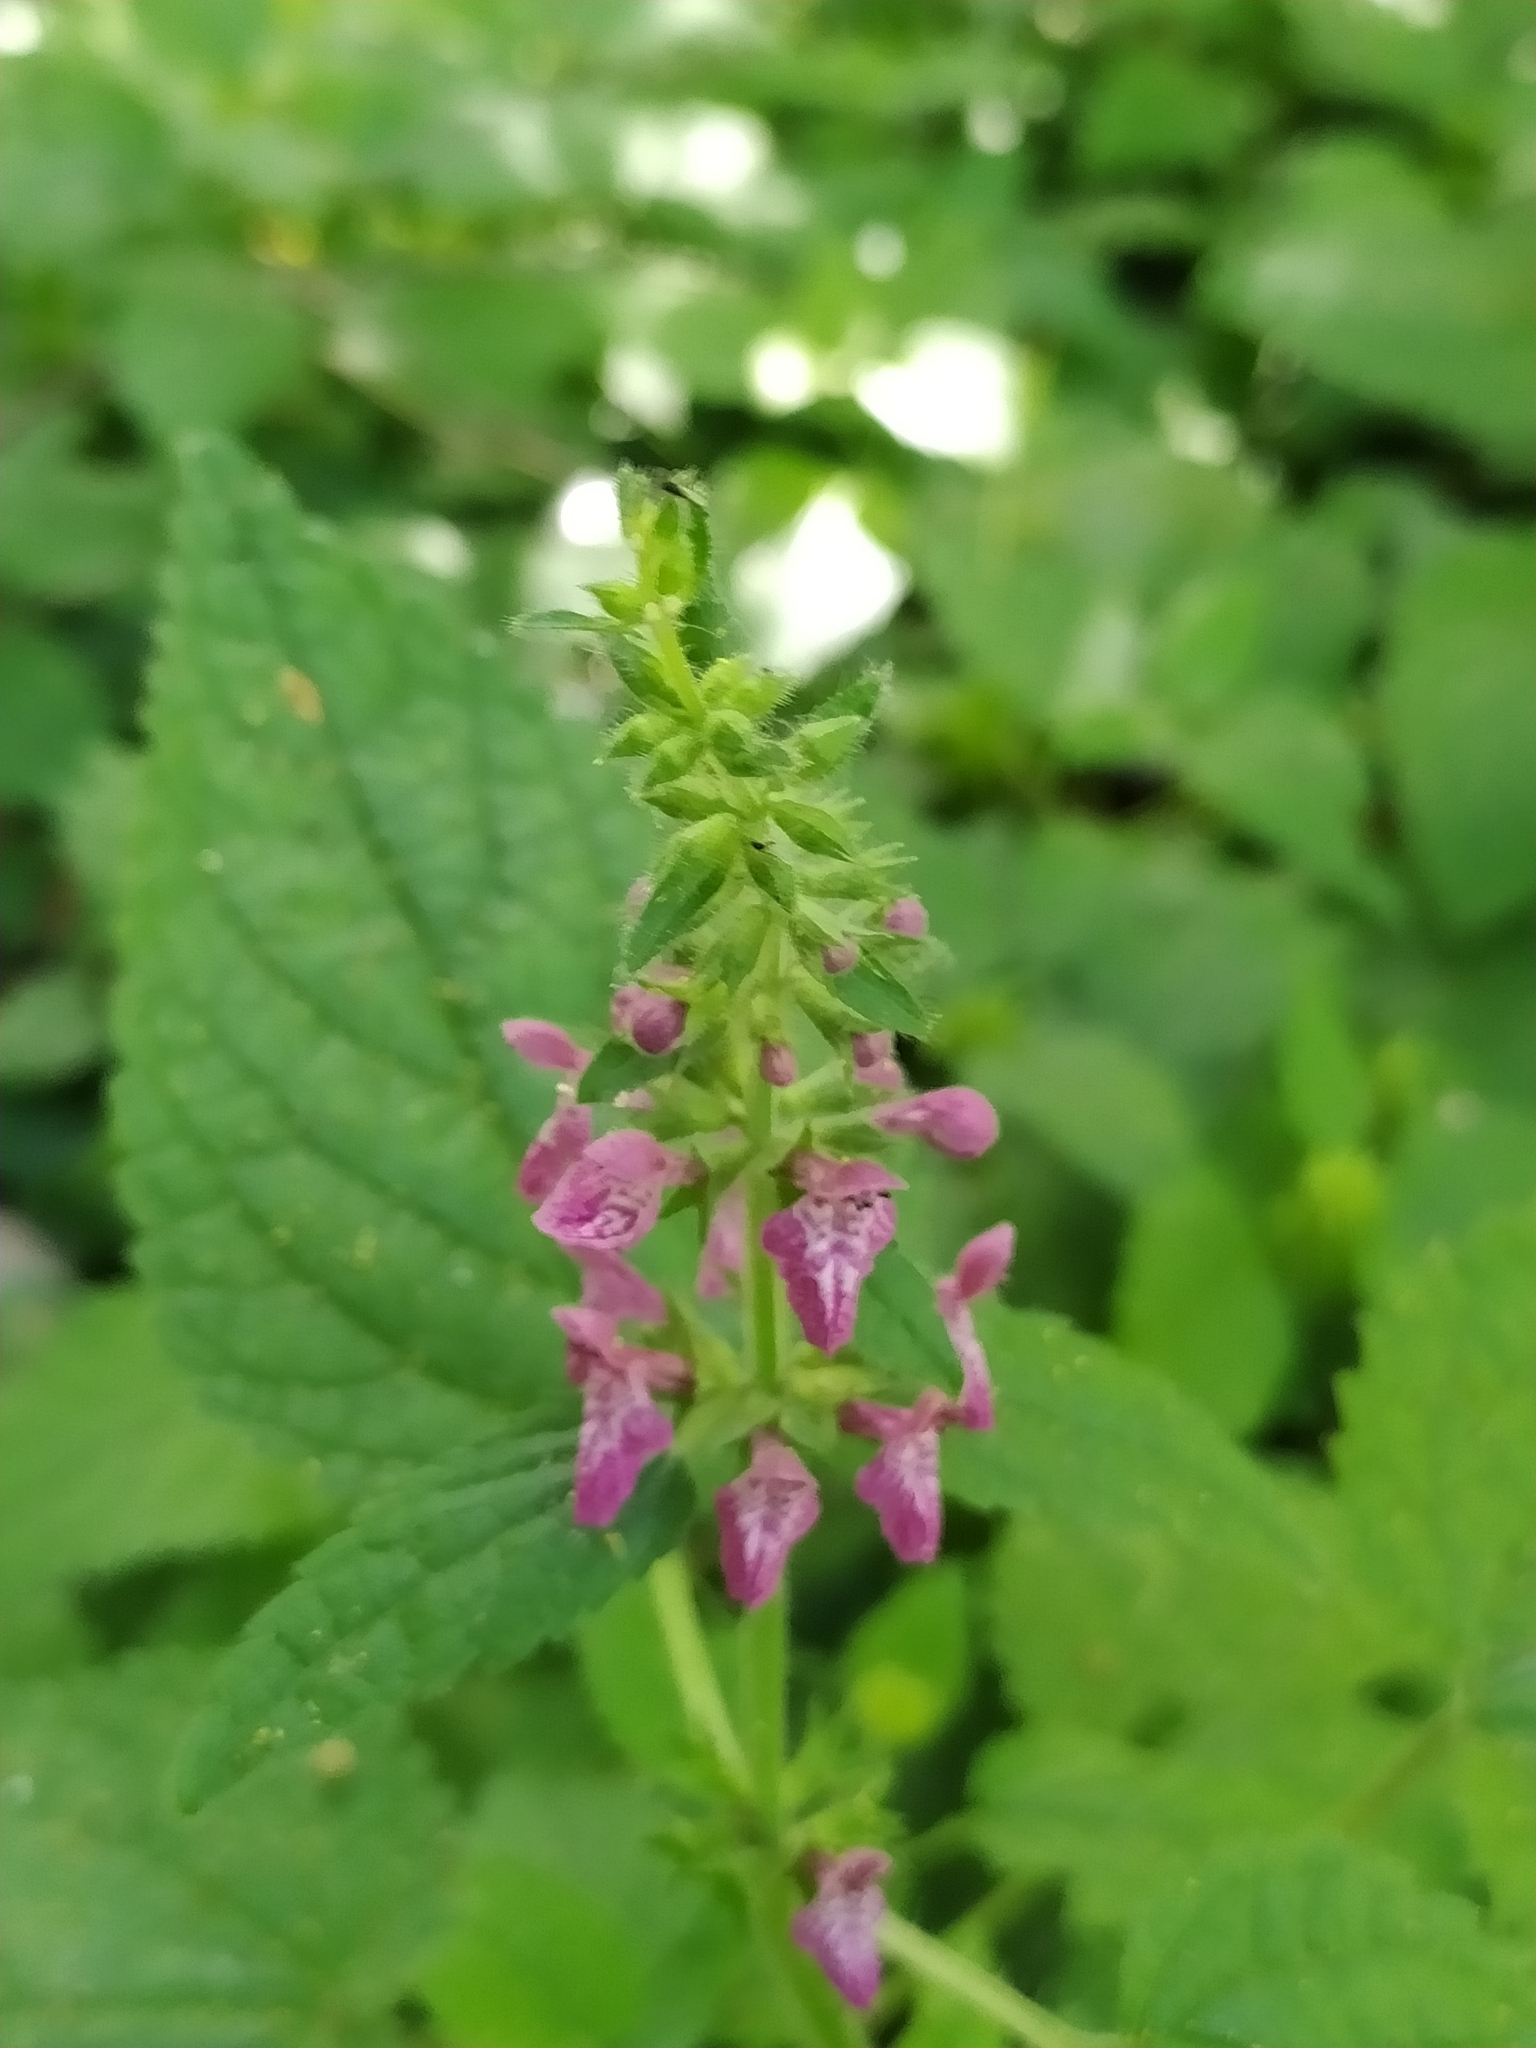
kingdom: Plantae
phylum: Tracheophyta
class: Magnoliopsida
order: Lamiales
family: Lamiaceae
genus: Stachys
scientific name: Stachys sylvatica
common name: Hedge woundwort
